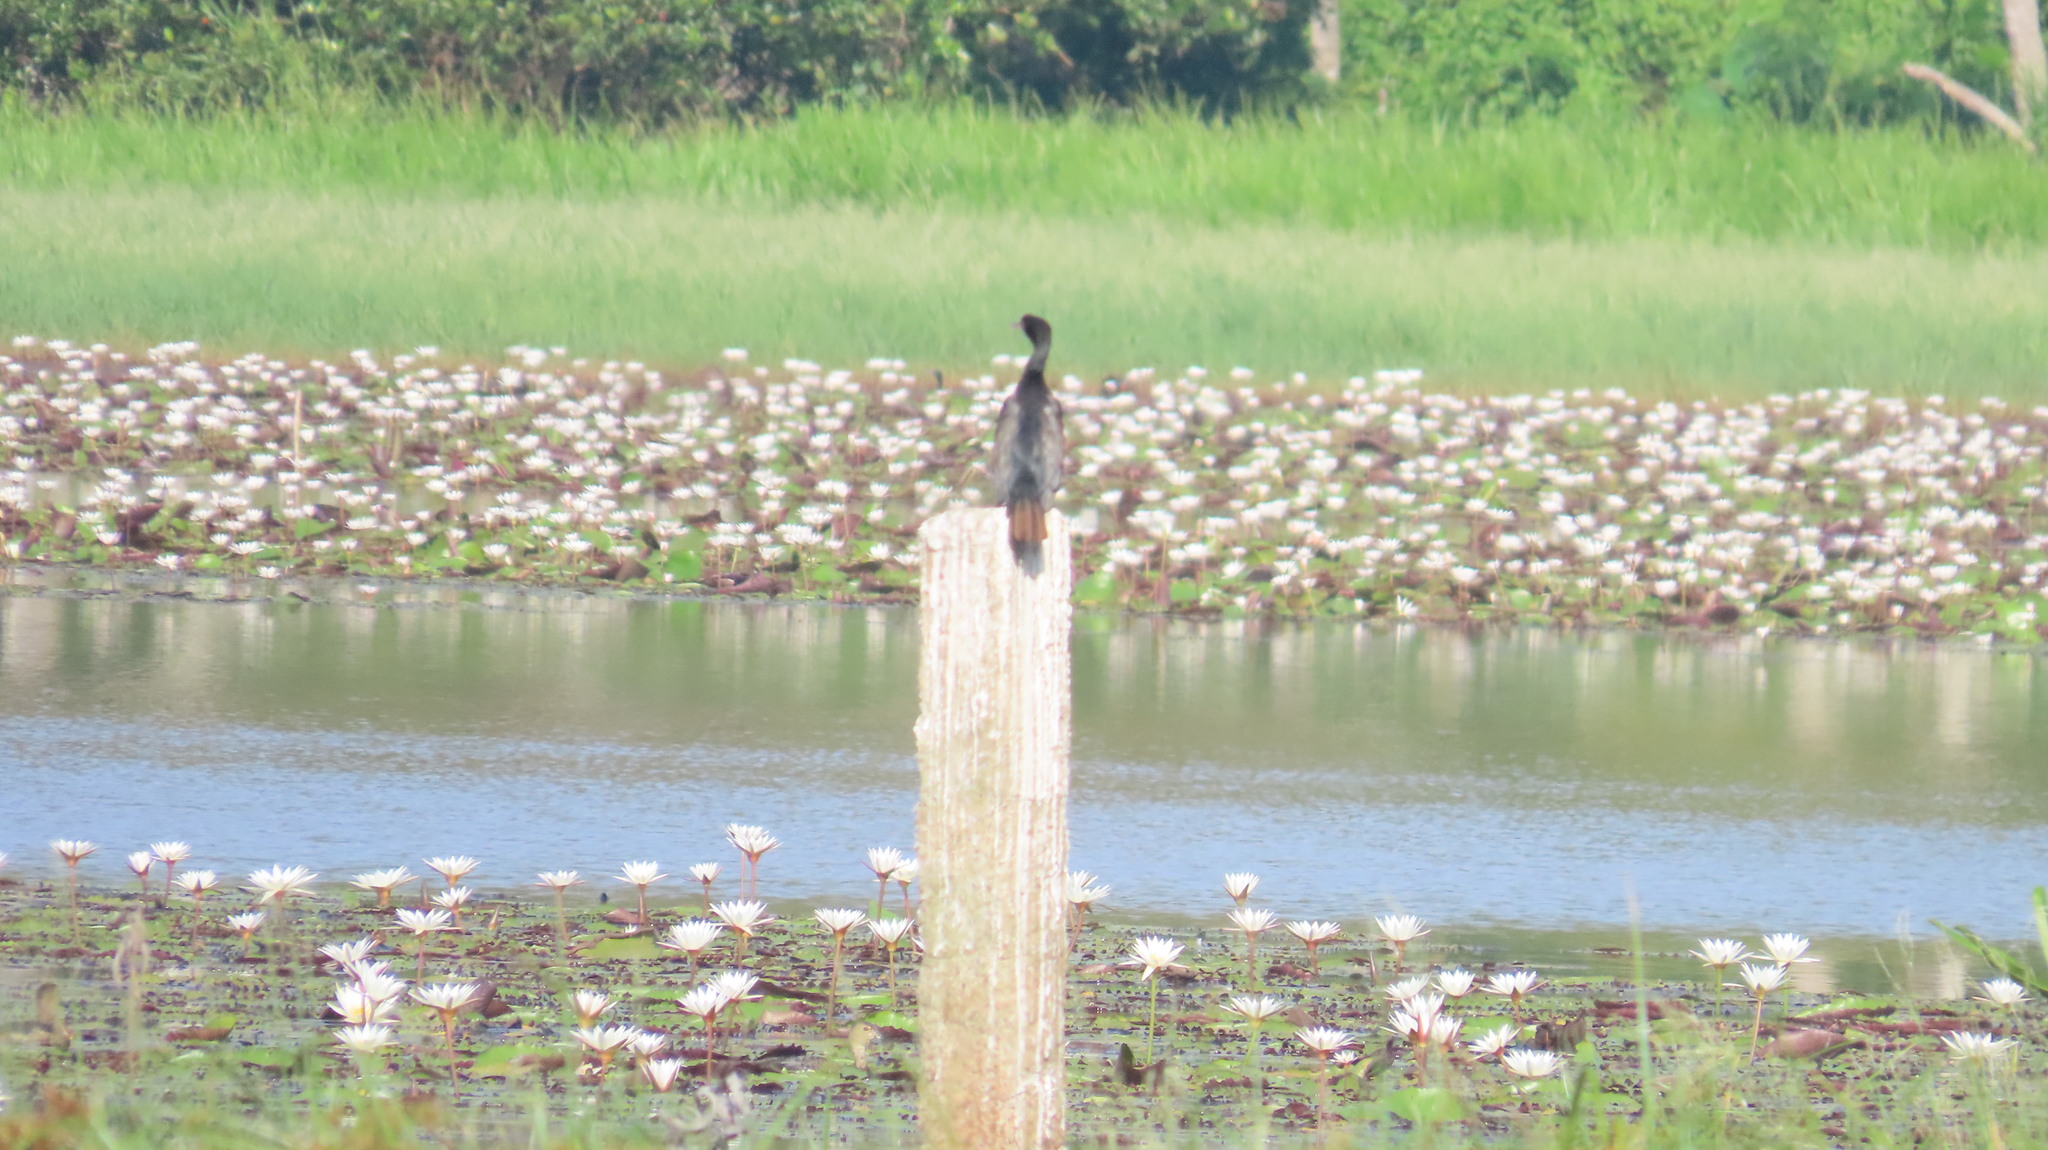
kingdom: Animalia
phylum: Chordata
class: Aves
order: Suliformes
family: Phalacrocoracidae
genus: Microcarbo
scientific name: Microcarbo niger
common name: Little cormorant
